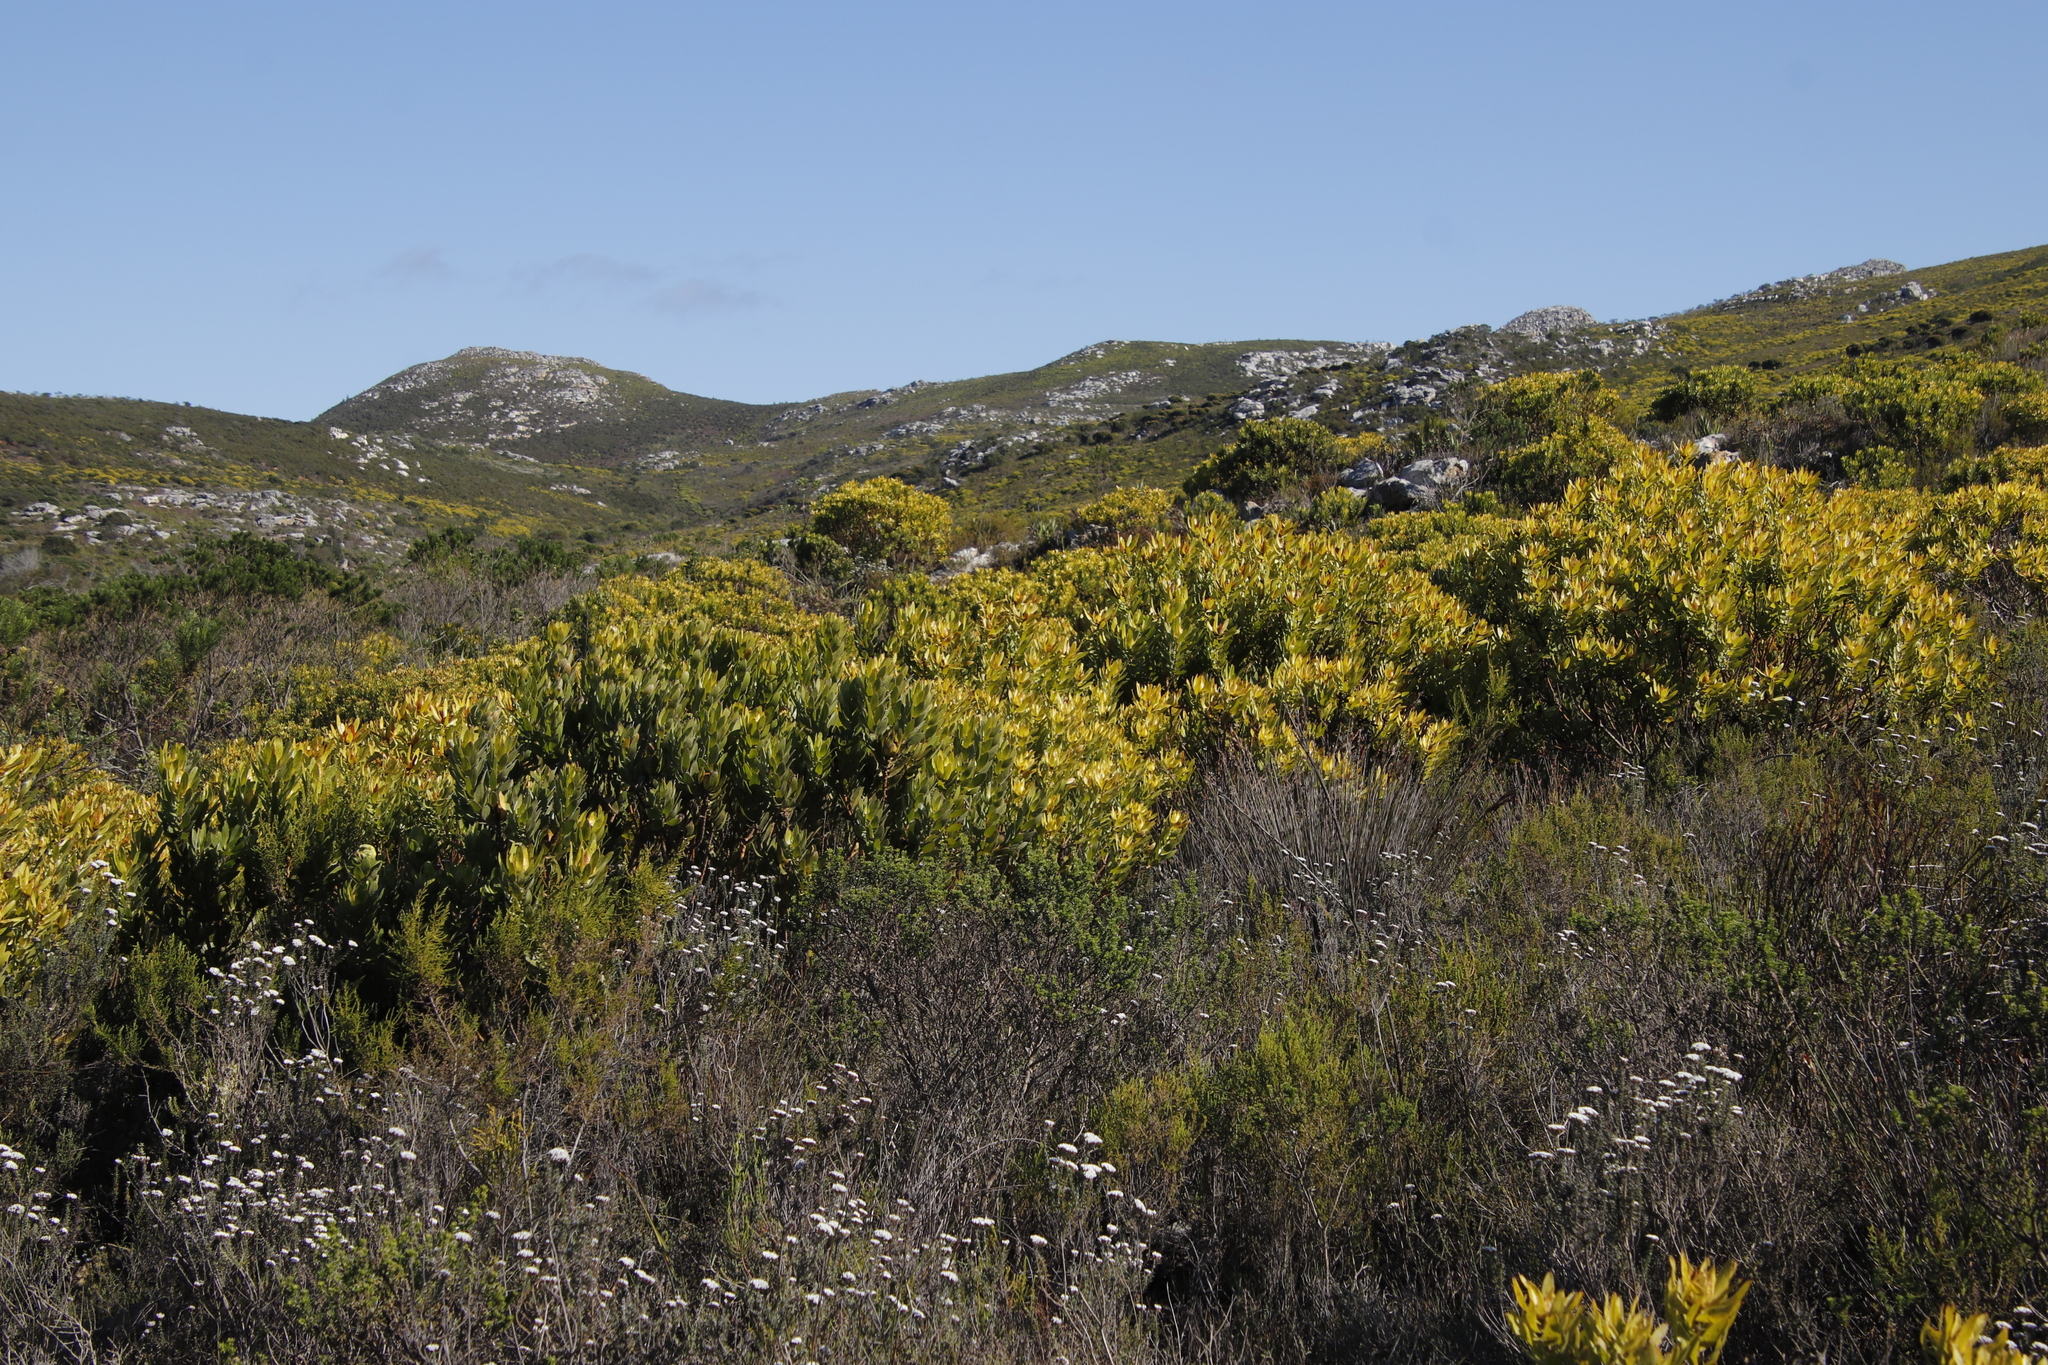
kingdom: Plantae
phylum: Tracheophyta
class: Magnoliopsida
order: Proteales
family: Proteaceae
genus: Leucadendron
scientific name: Leucadendron laureolum
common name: Golden sunshinebush
